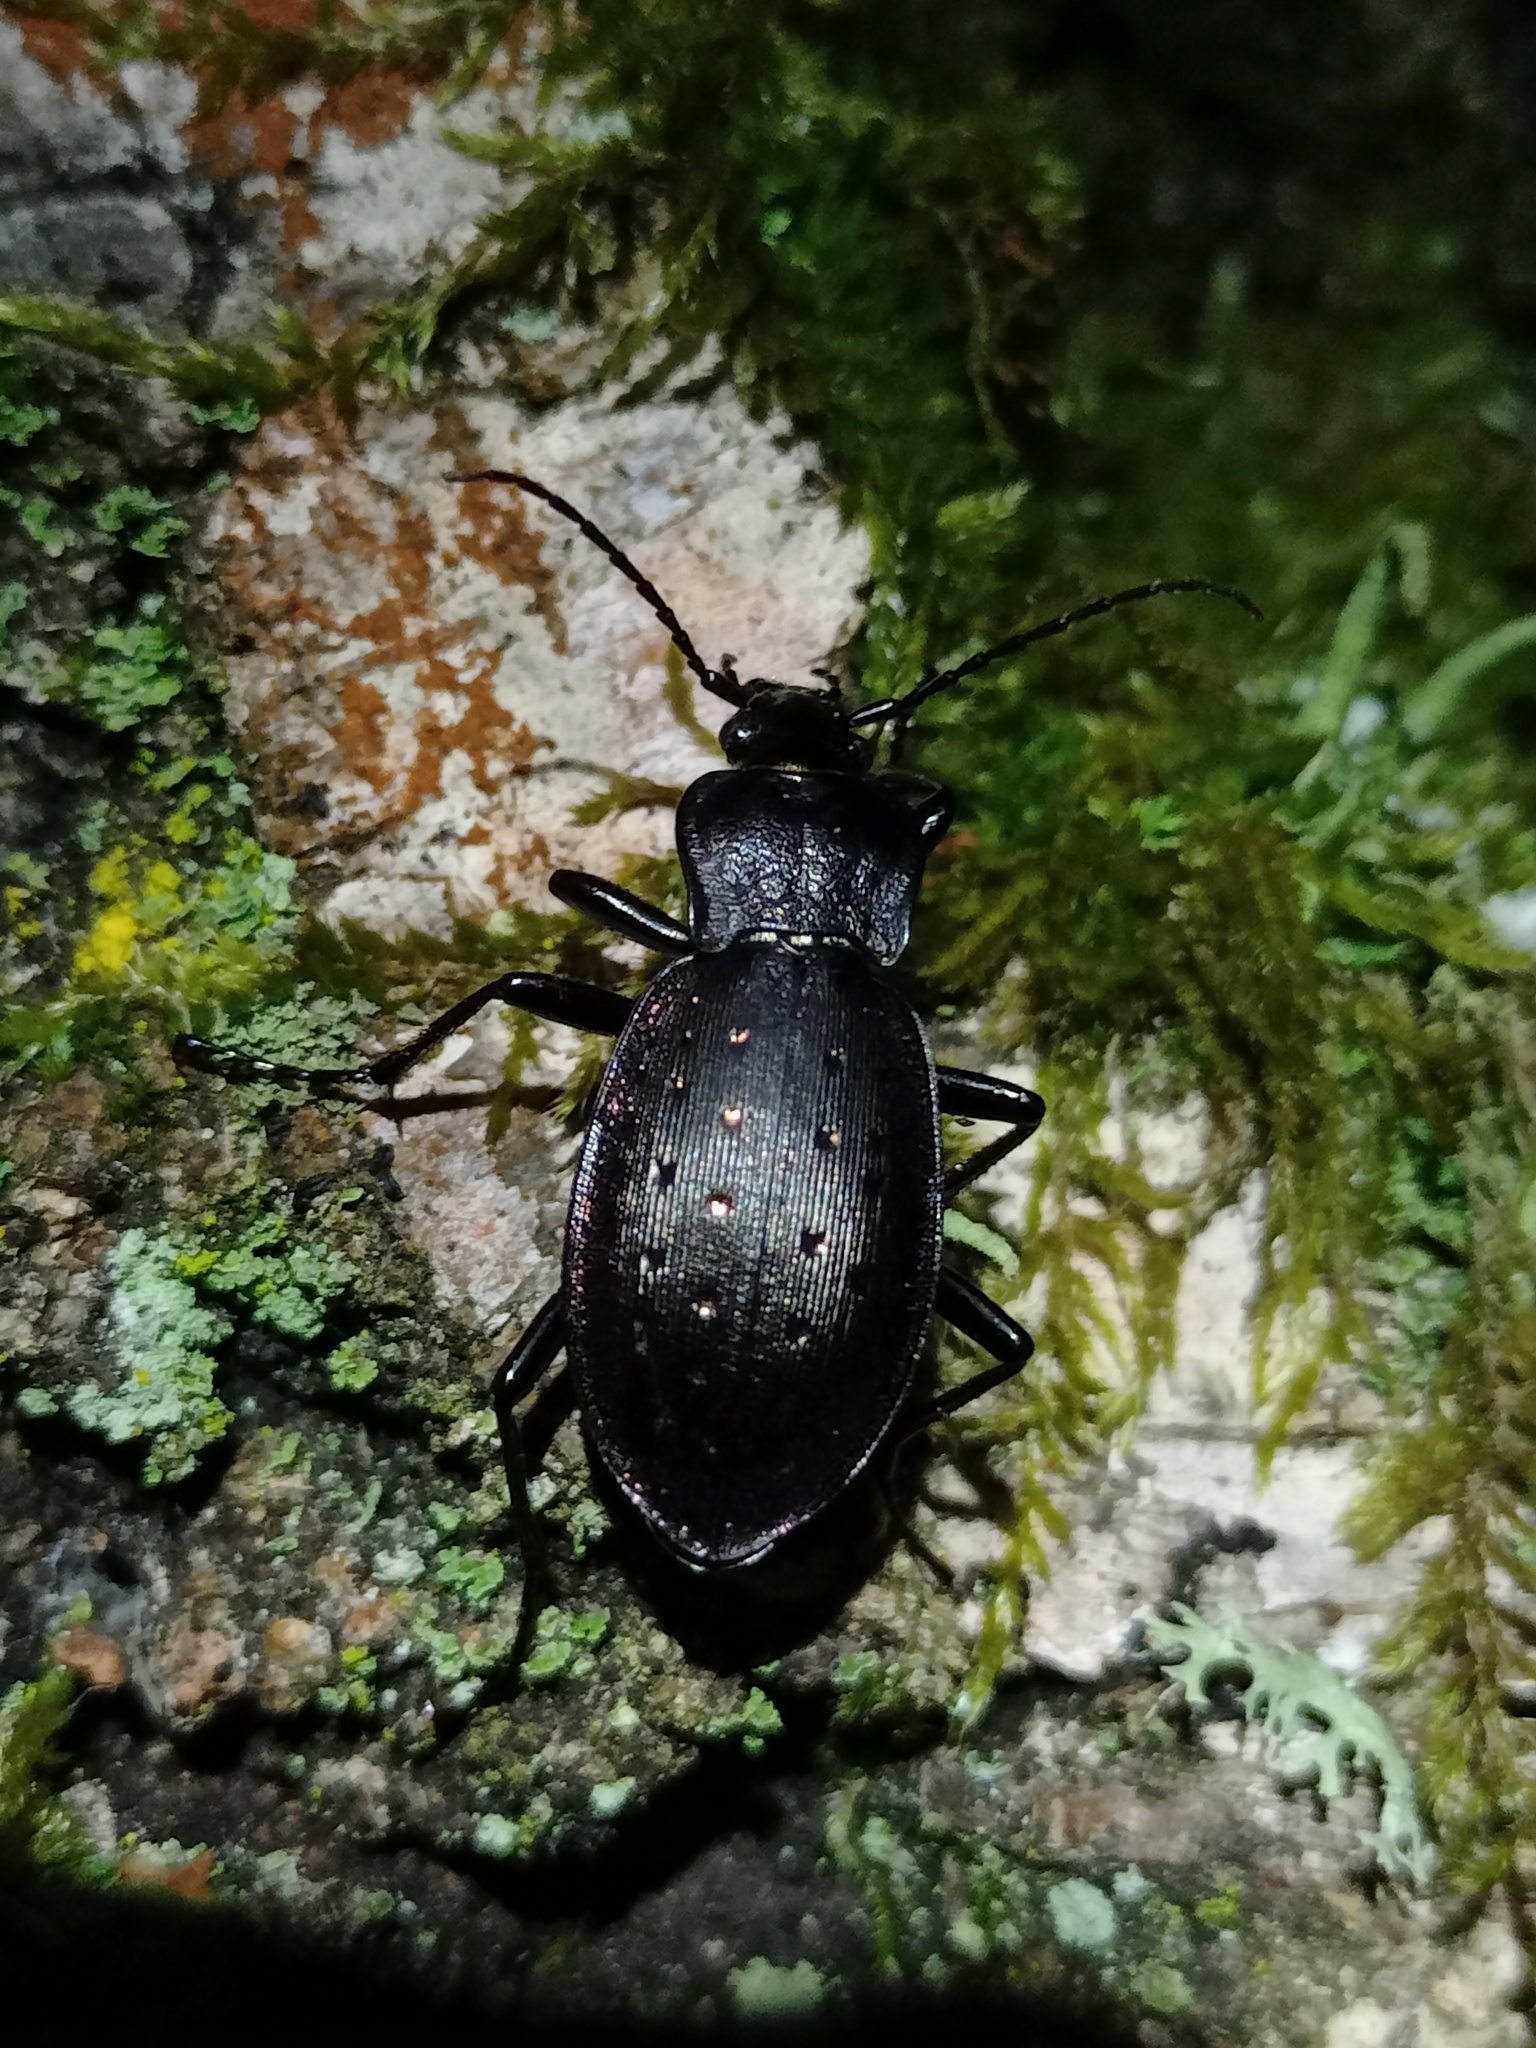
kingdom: Animalia
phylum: Arthropoda
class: Insecta
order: Coleoptera
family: Carabidae
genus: Carabus
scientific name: Carabus hortensis
